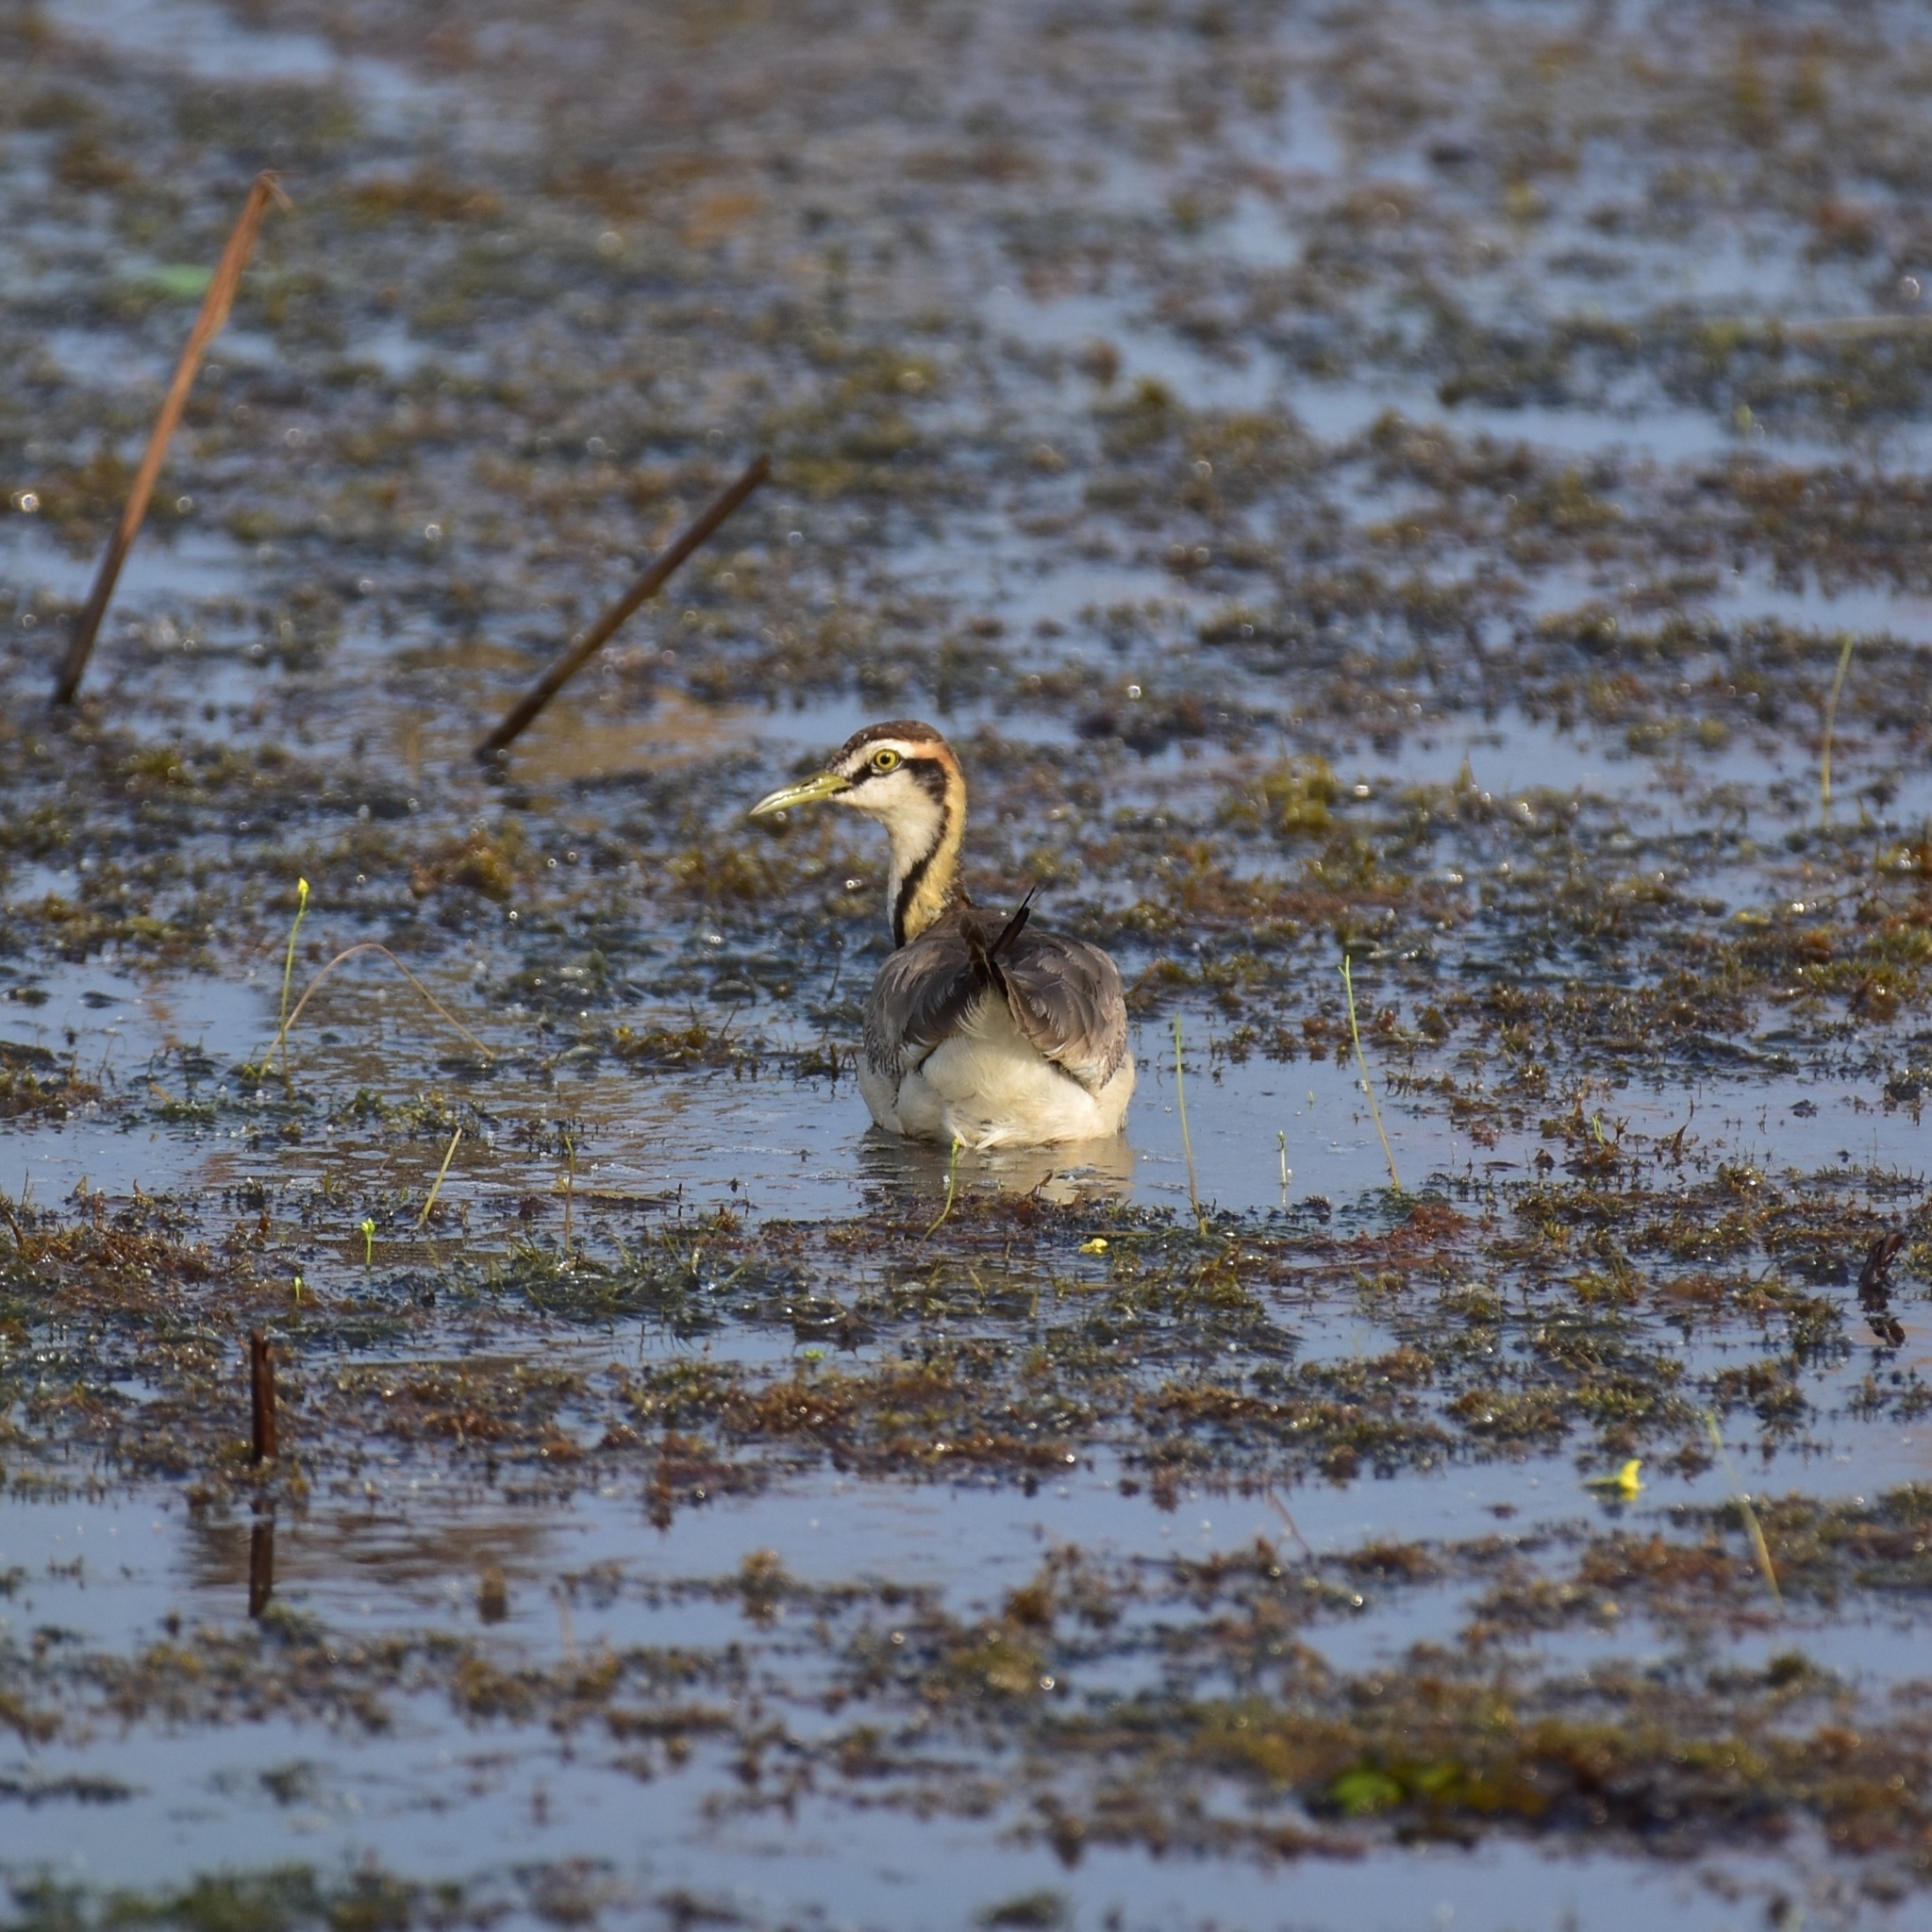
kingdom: Animalia
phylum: Chordata
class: Aves
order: Charadriiformes
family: Jacanidae
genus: Hydrophasianus
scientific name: Hydrophasianus chirurgus
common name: Pheasant-tailed jacana
